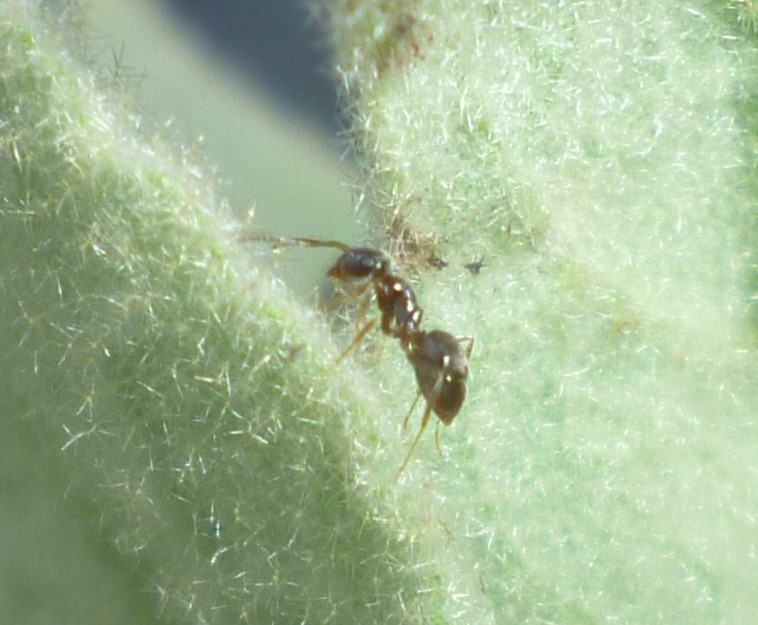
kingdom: Animalia
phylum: Arthropoda
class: Insecta
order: Hymenoptera
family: Formicidae
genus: Lasius
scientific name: Lasius
